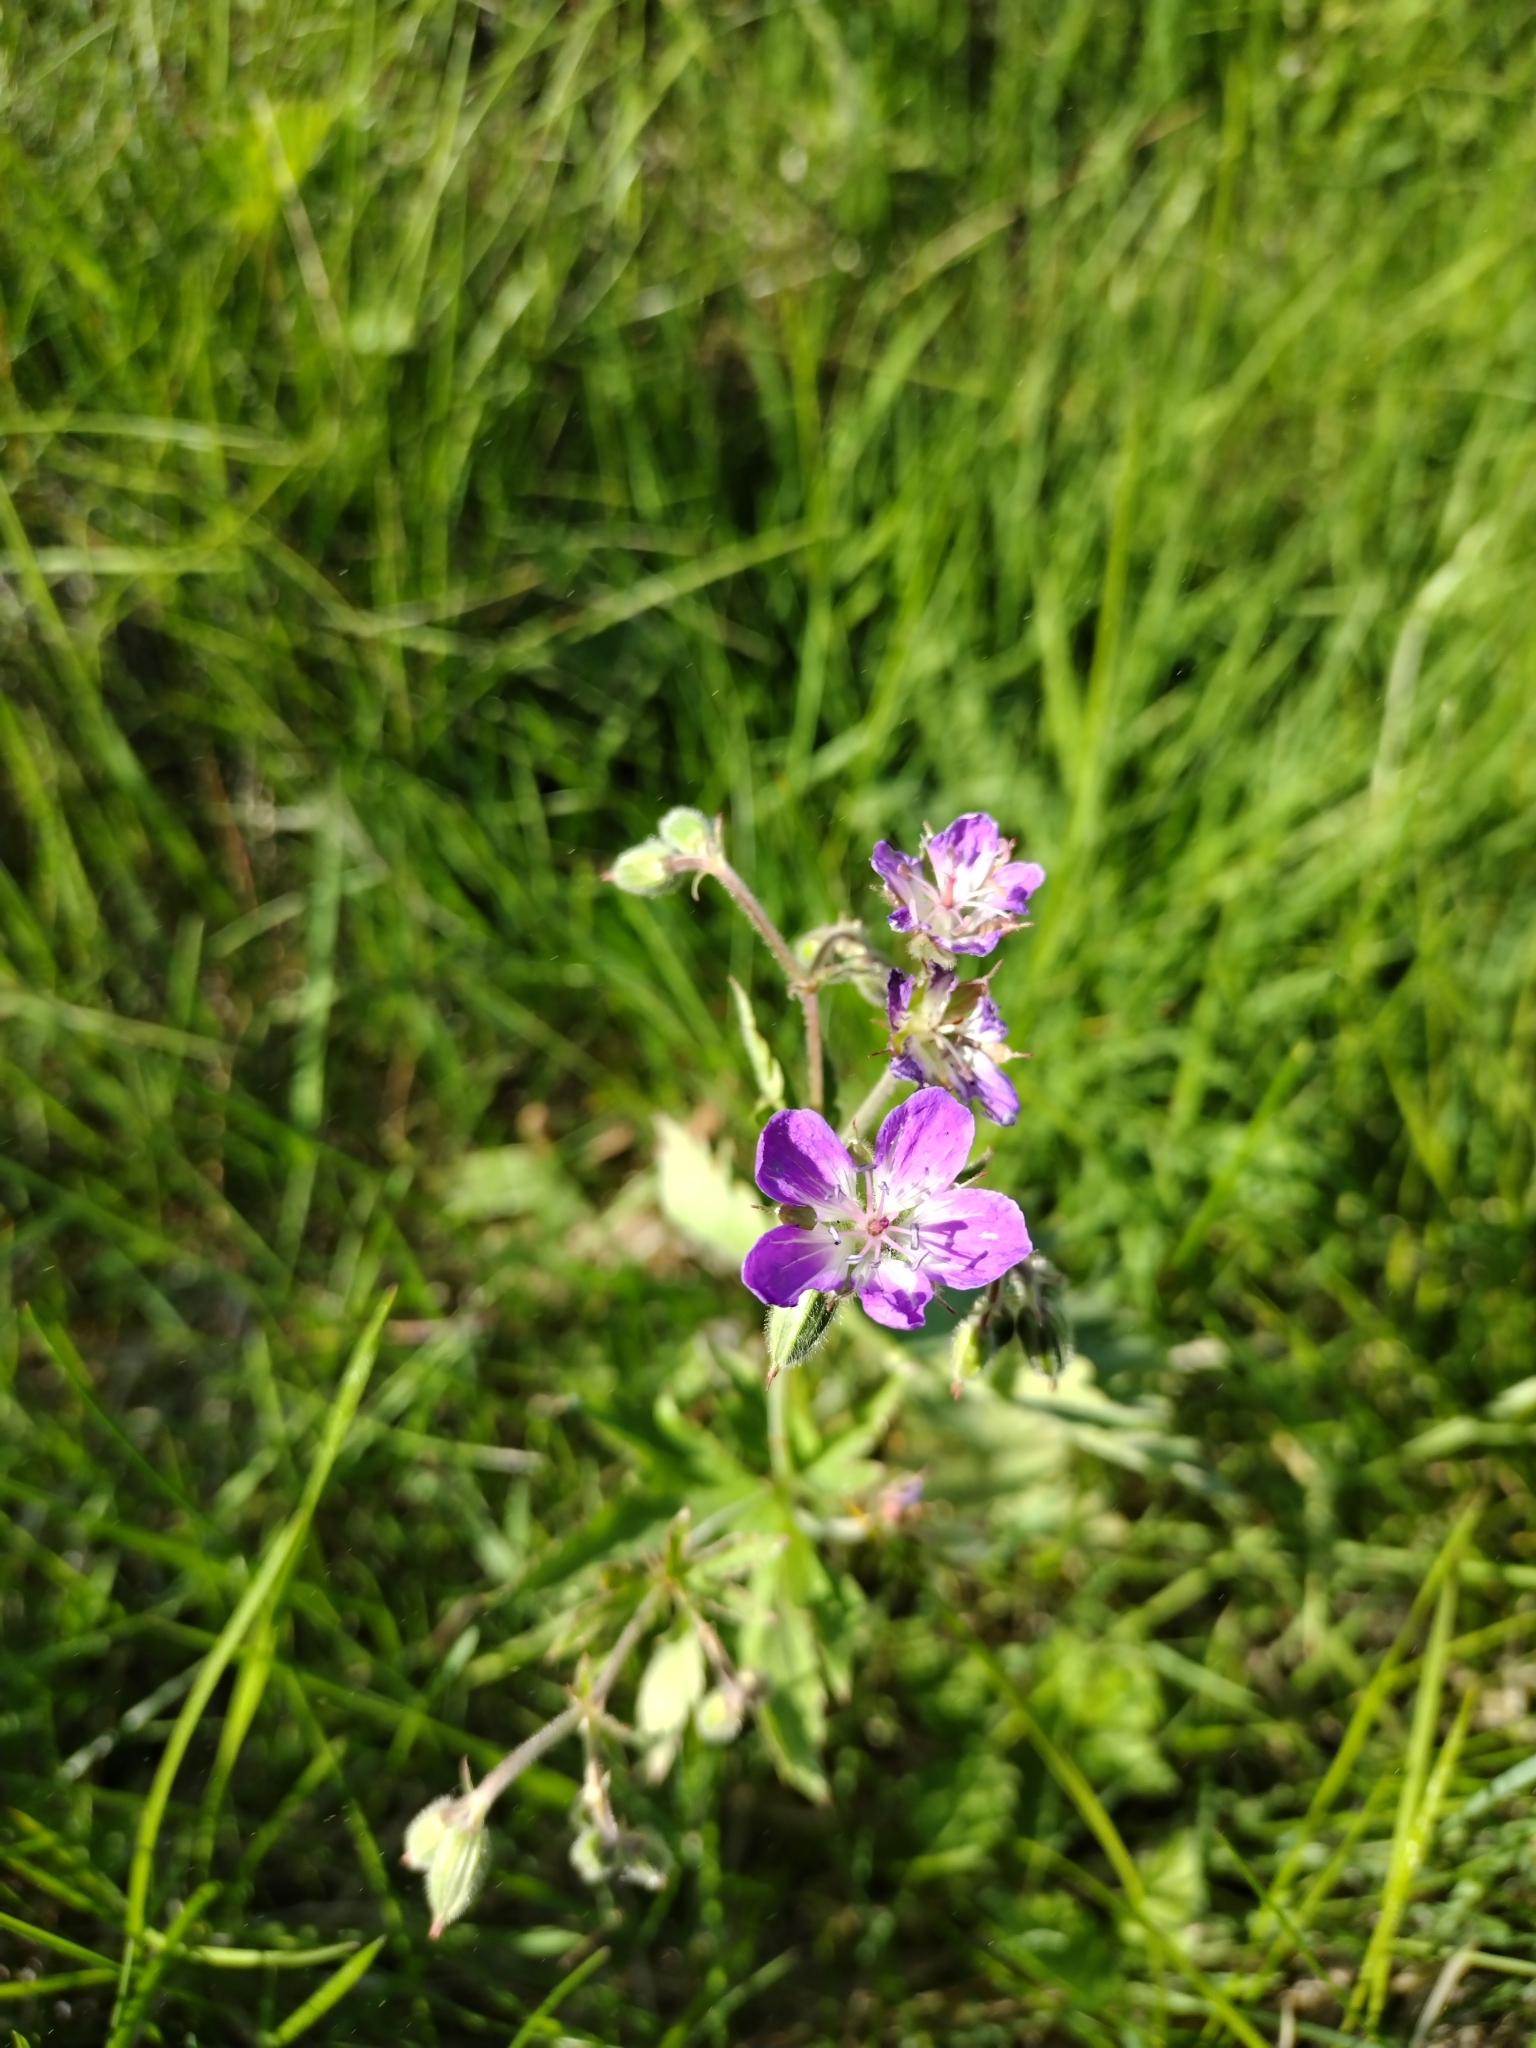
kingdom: Plantae
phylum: Tracheophyta
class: Magnoliopsida
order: Geraniales
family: Geraniaceae
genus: Geranium
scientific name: Geranium sylvaticum
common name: Wood crane's-bill
